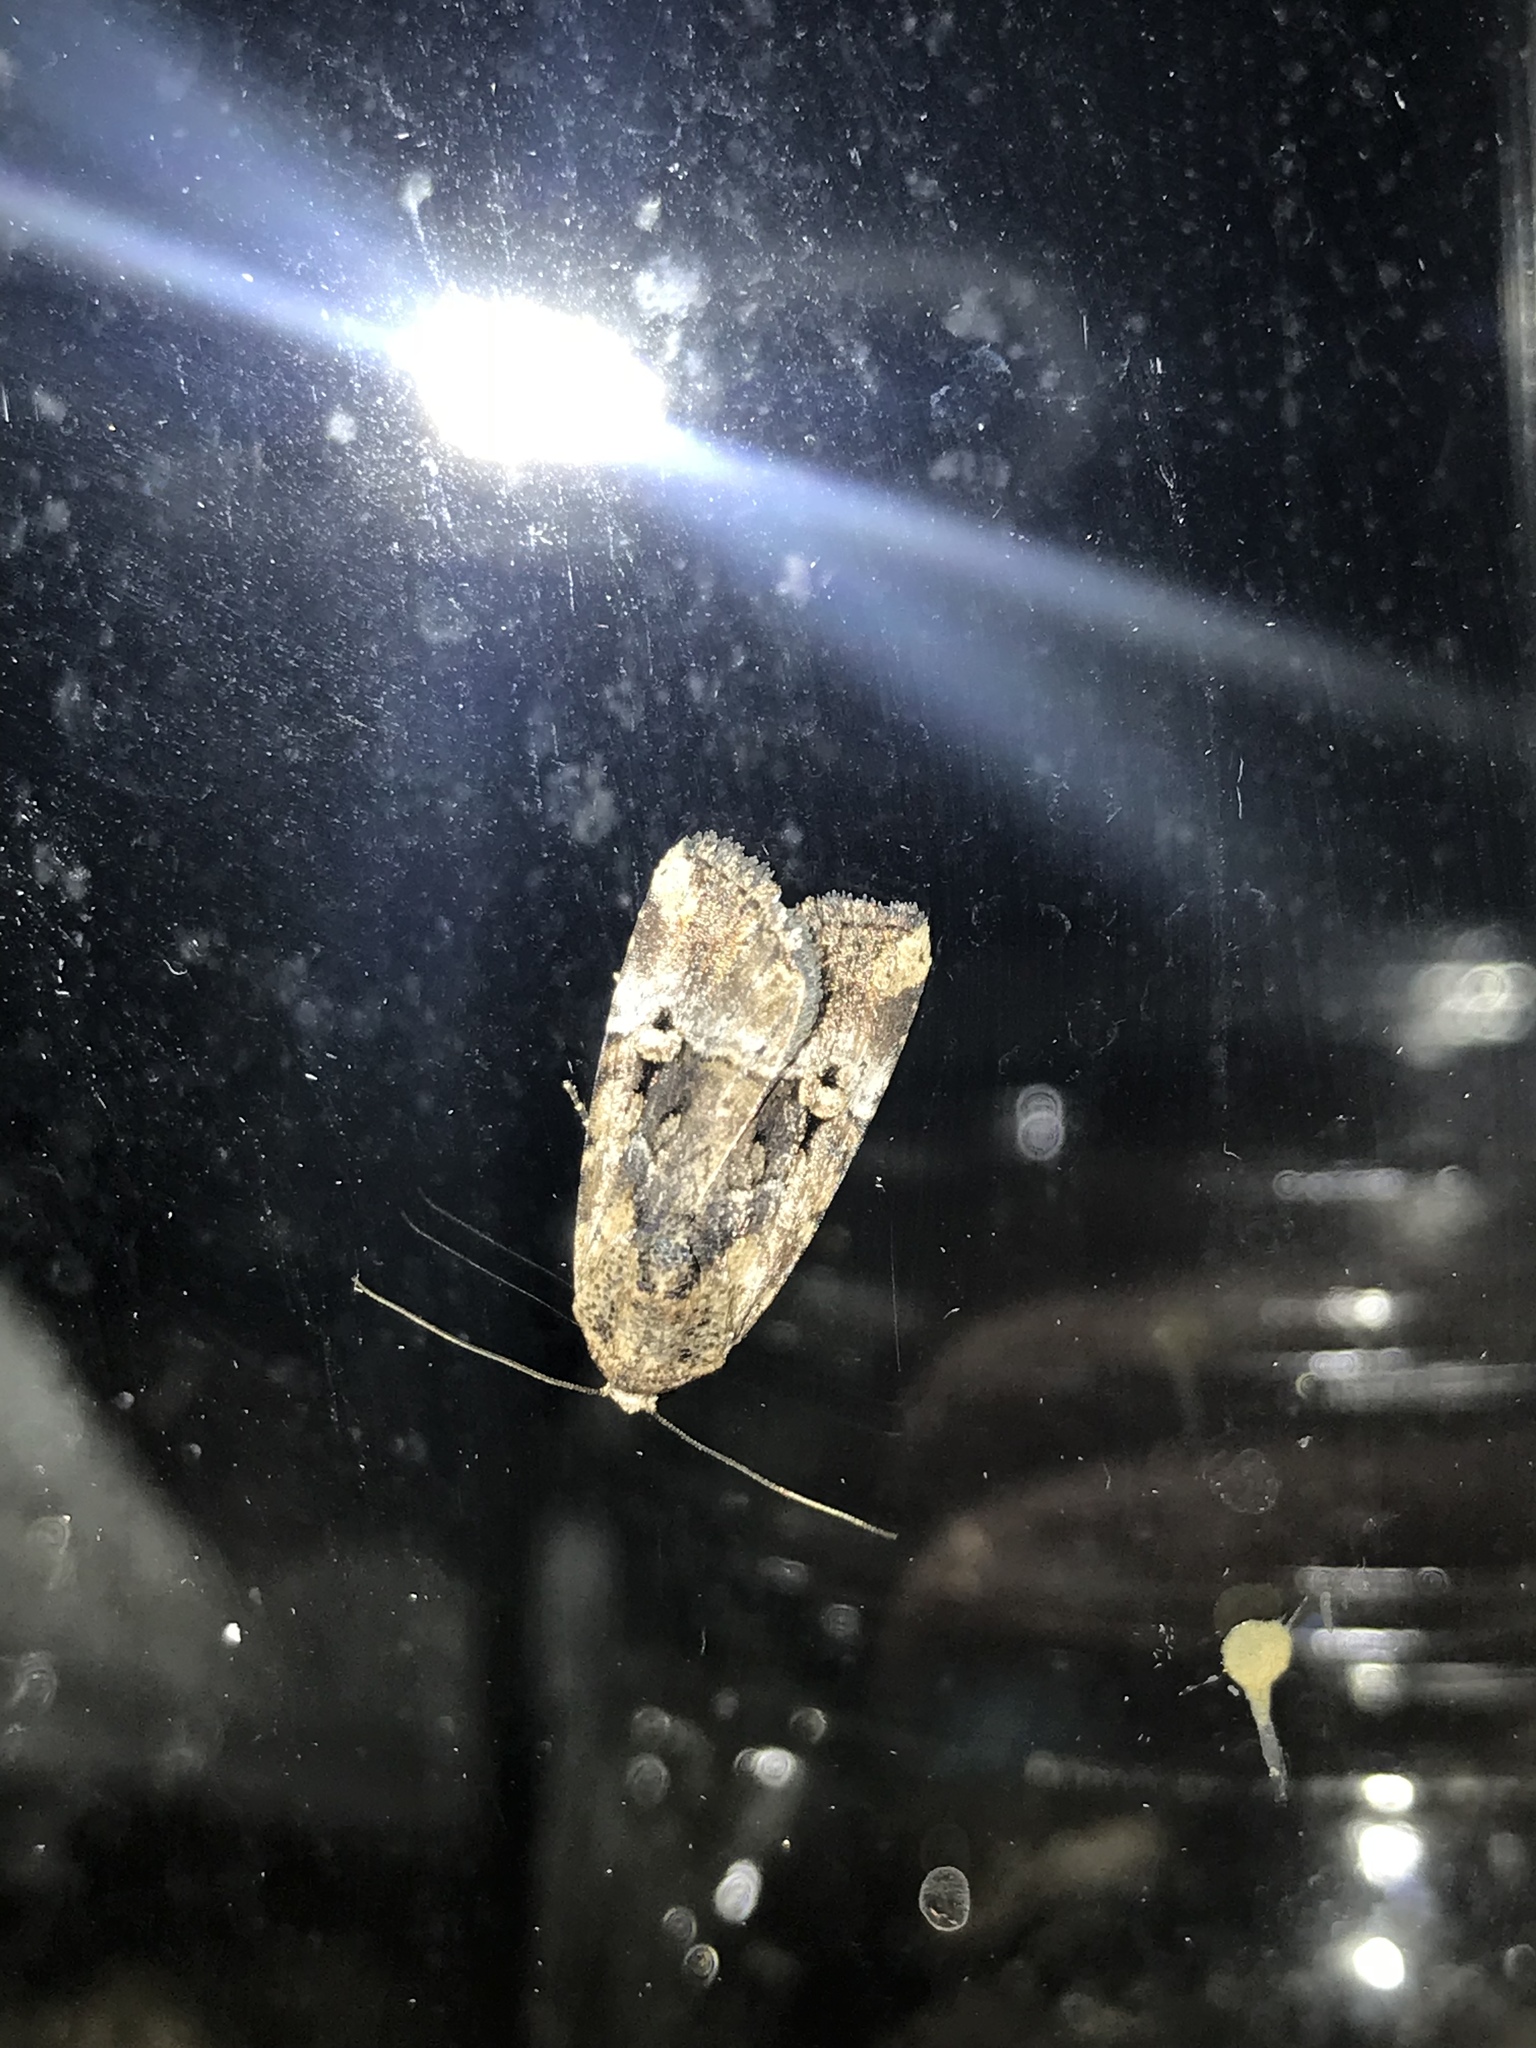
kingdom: Animalia
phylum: Arthropoda
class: Insecta
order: Lepidoptera
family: Noctuidae
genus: Elaphria
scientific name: Elaphria chalcedonia
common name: Chalcedony midget
